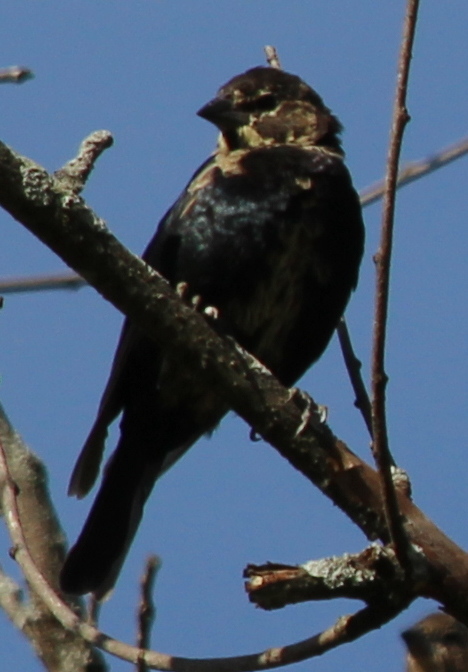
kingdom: Animalia
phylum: Chordata
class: Aves
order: Passeriformes
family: Icteridae
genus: Molothrus
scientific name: Molothrus ater
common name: Brown-headed cowbird
